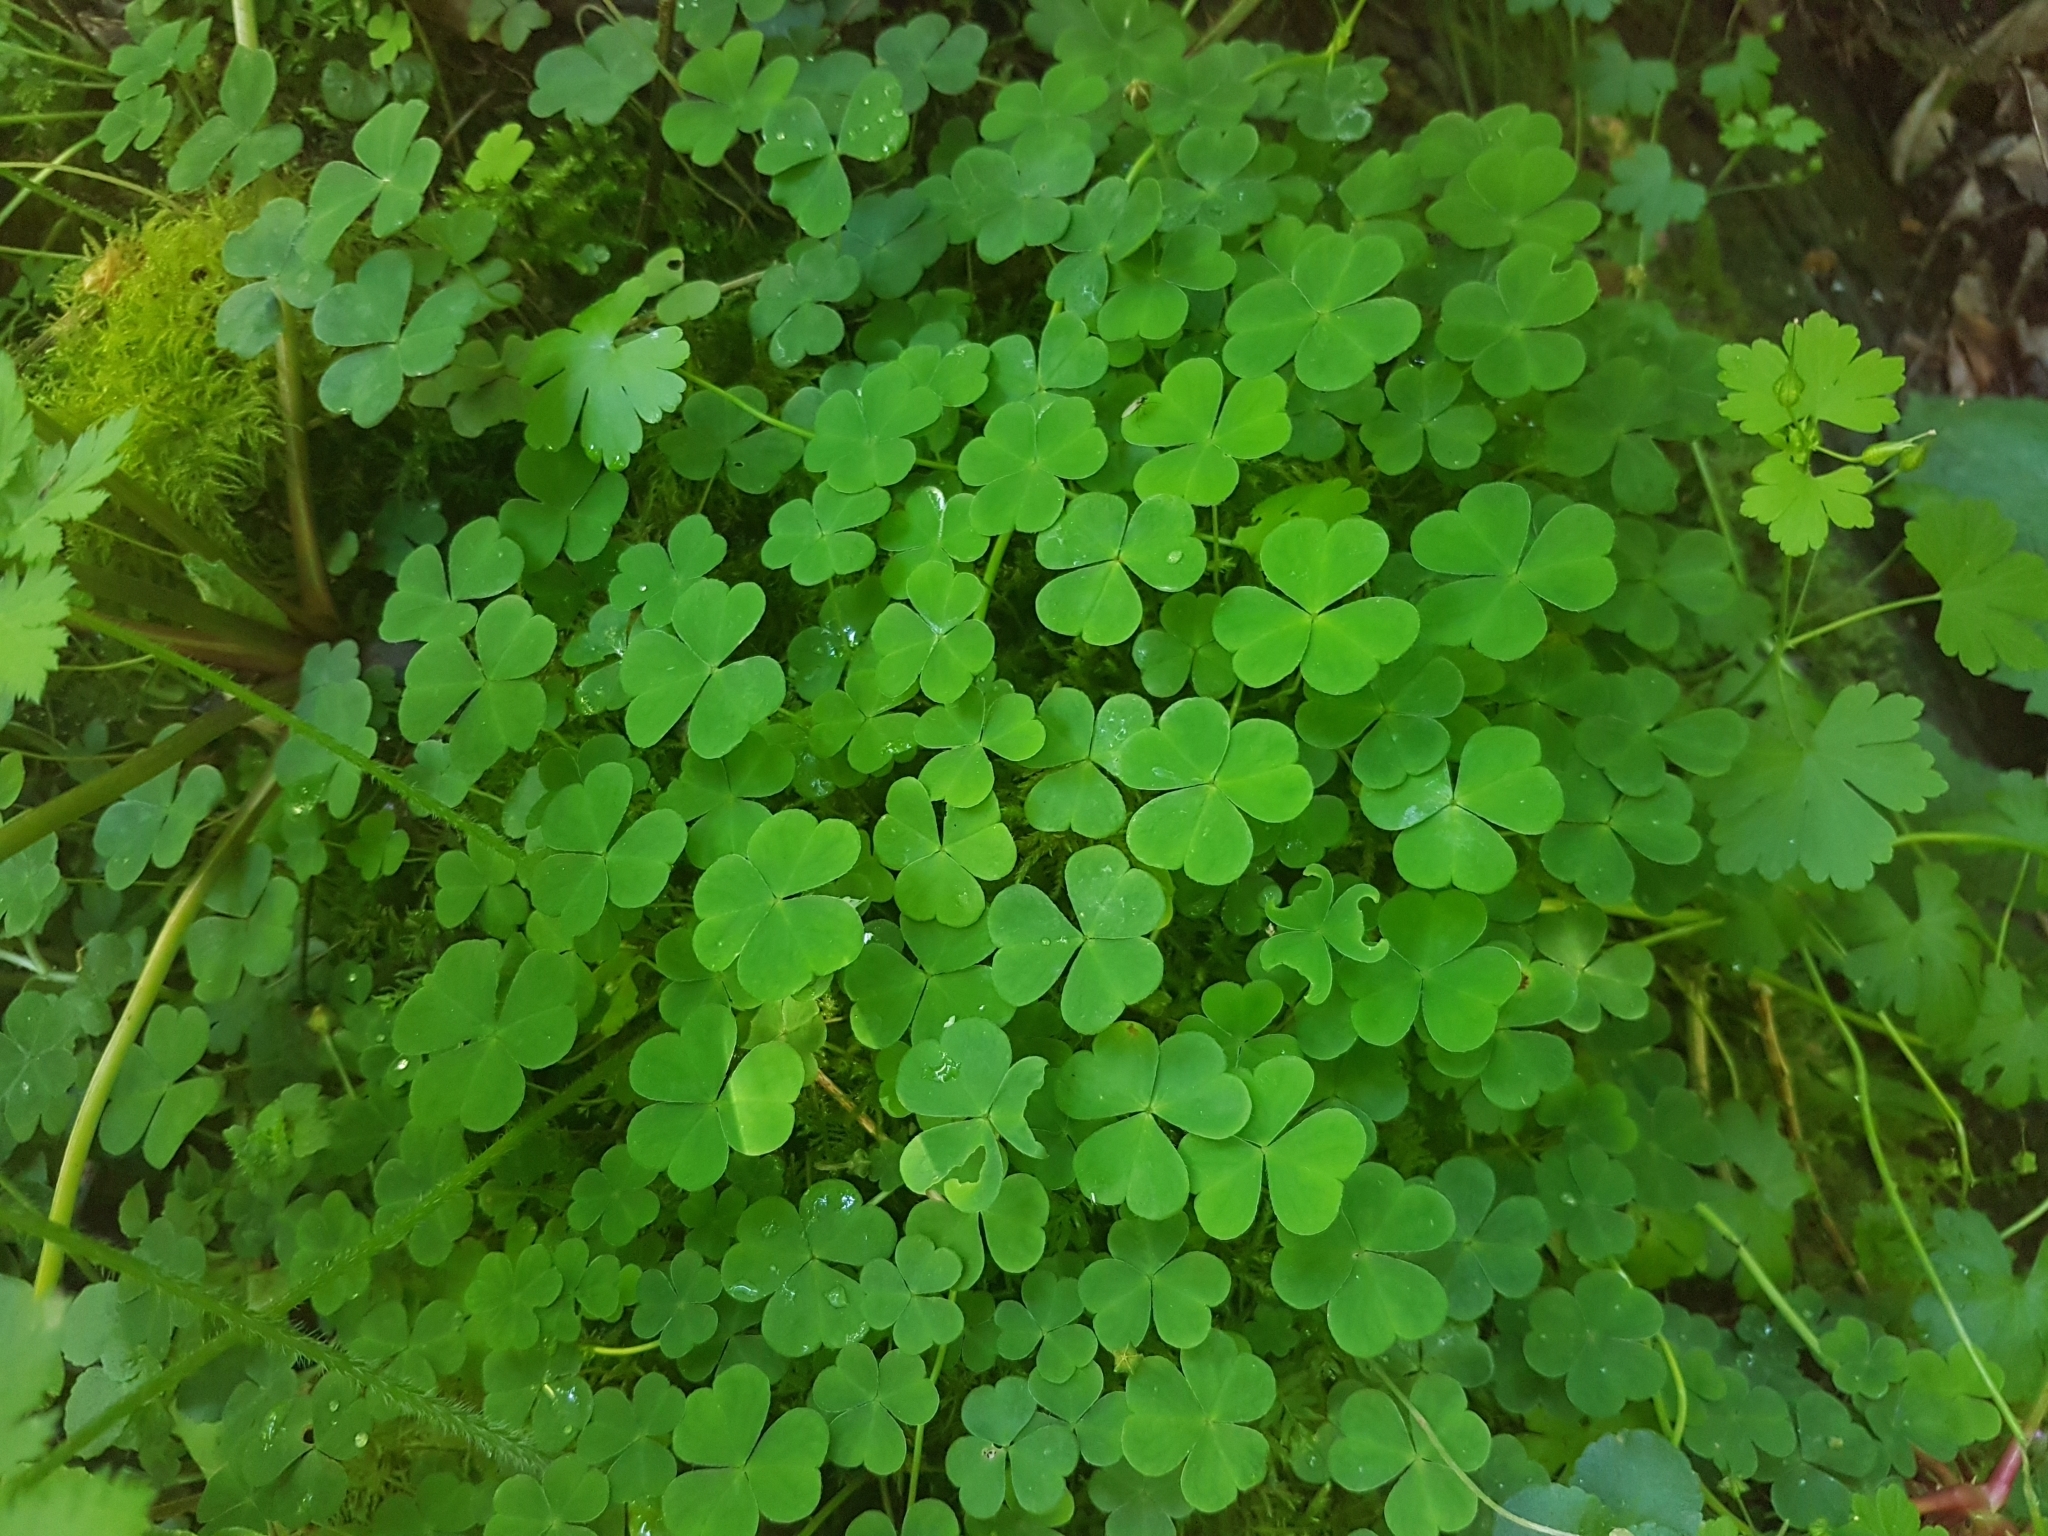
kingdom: Plantae
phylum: Tracheophyta
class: Magnoliopsida
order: Oxalidales
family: Oxalidaceae
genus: Oxalis
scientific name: Oxalis acetosella
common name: Wood-sorrel
